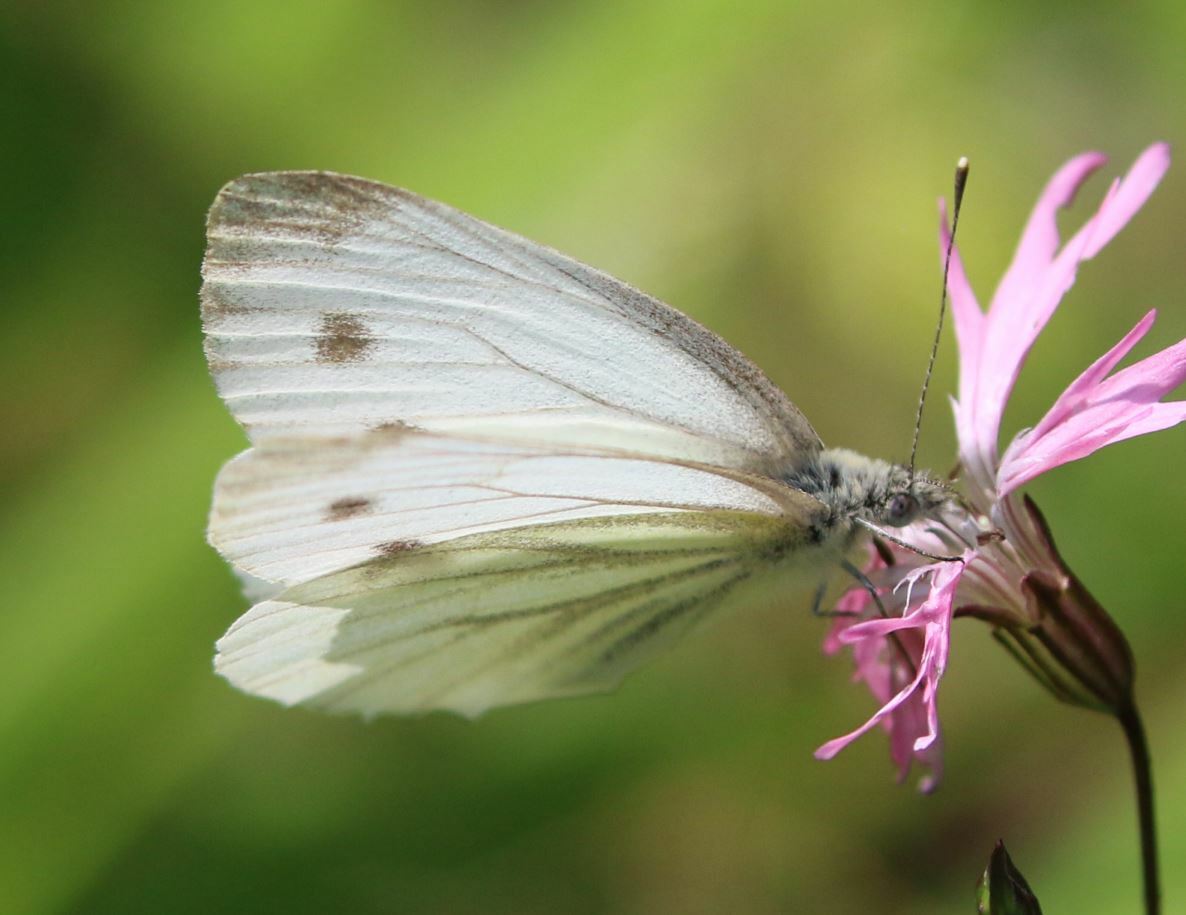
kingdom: Animalia
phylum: Arthropoda
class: Insecta
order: Lepidoptera
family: Pieridae
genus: Pieris
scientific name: Pieris napi
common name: Green-veined white
